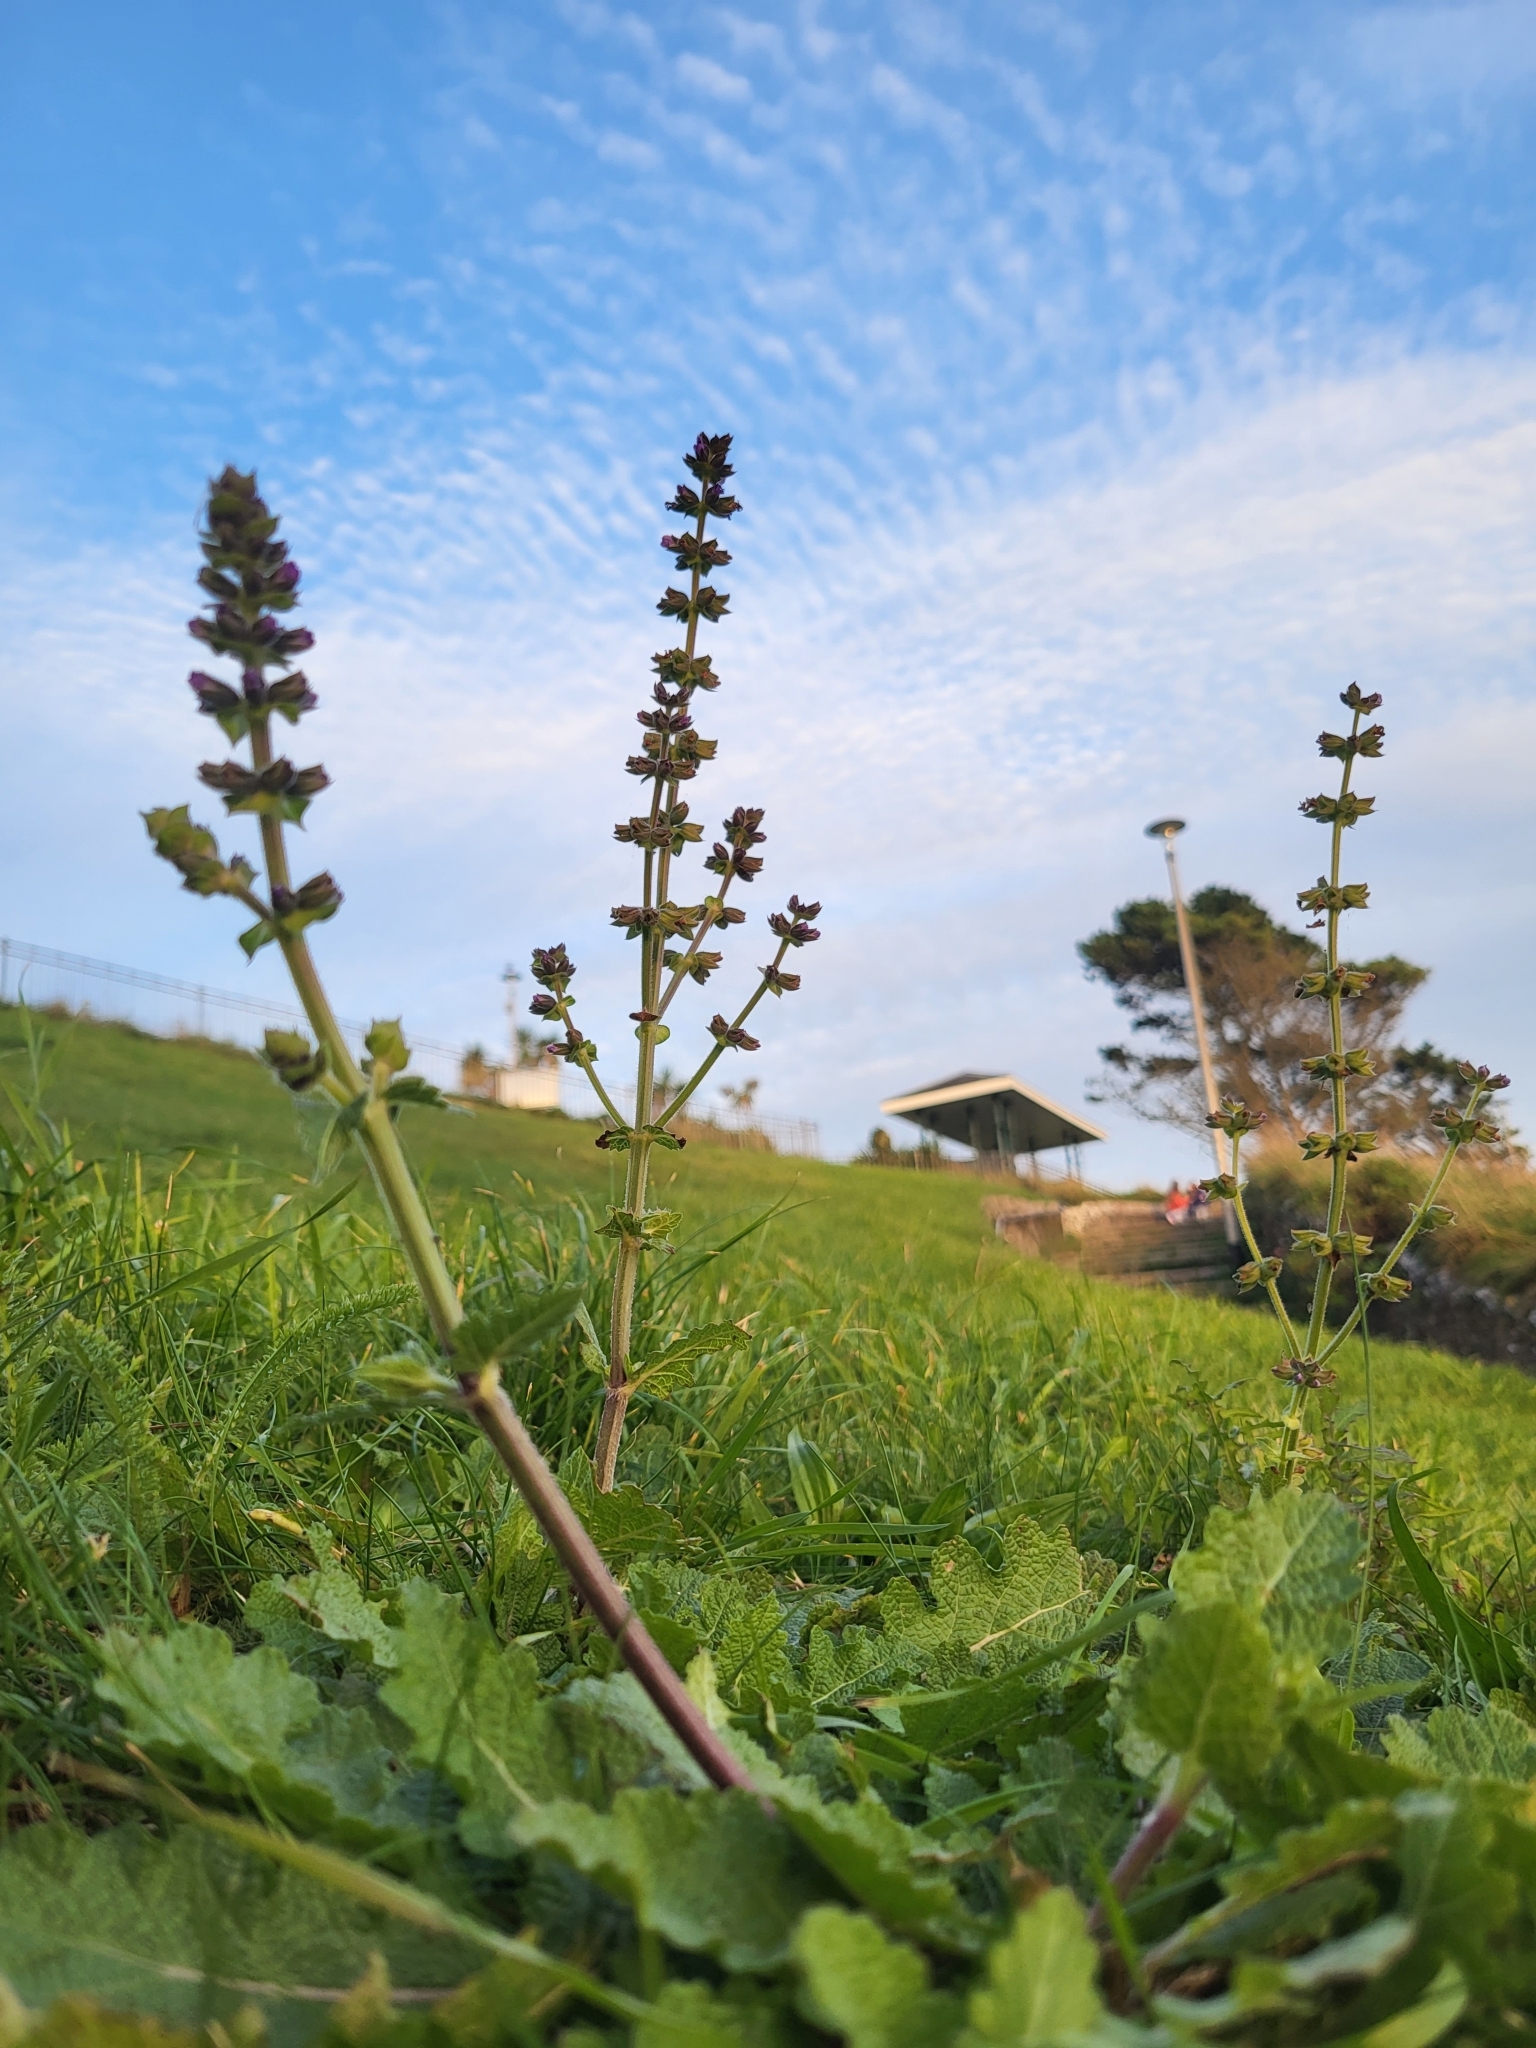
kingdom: Plantae
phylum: Tracheophyta
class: Magnoliopsida
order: Lamiales
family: Lamiaceae
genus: Salvia
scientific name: Salvia verbenaca
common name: Wild clary
